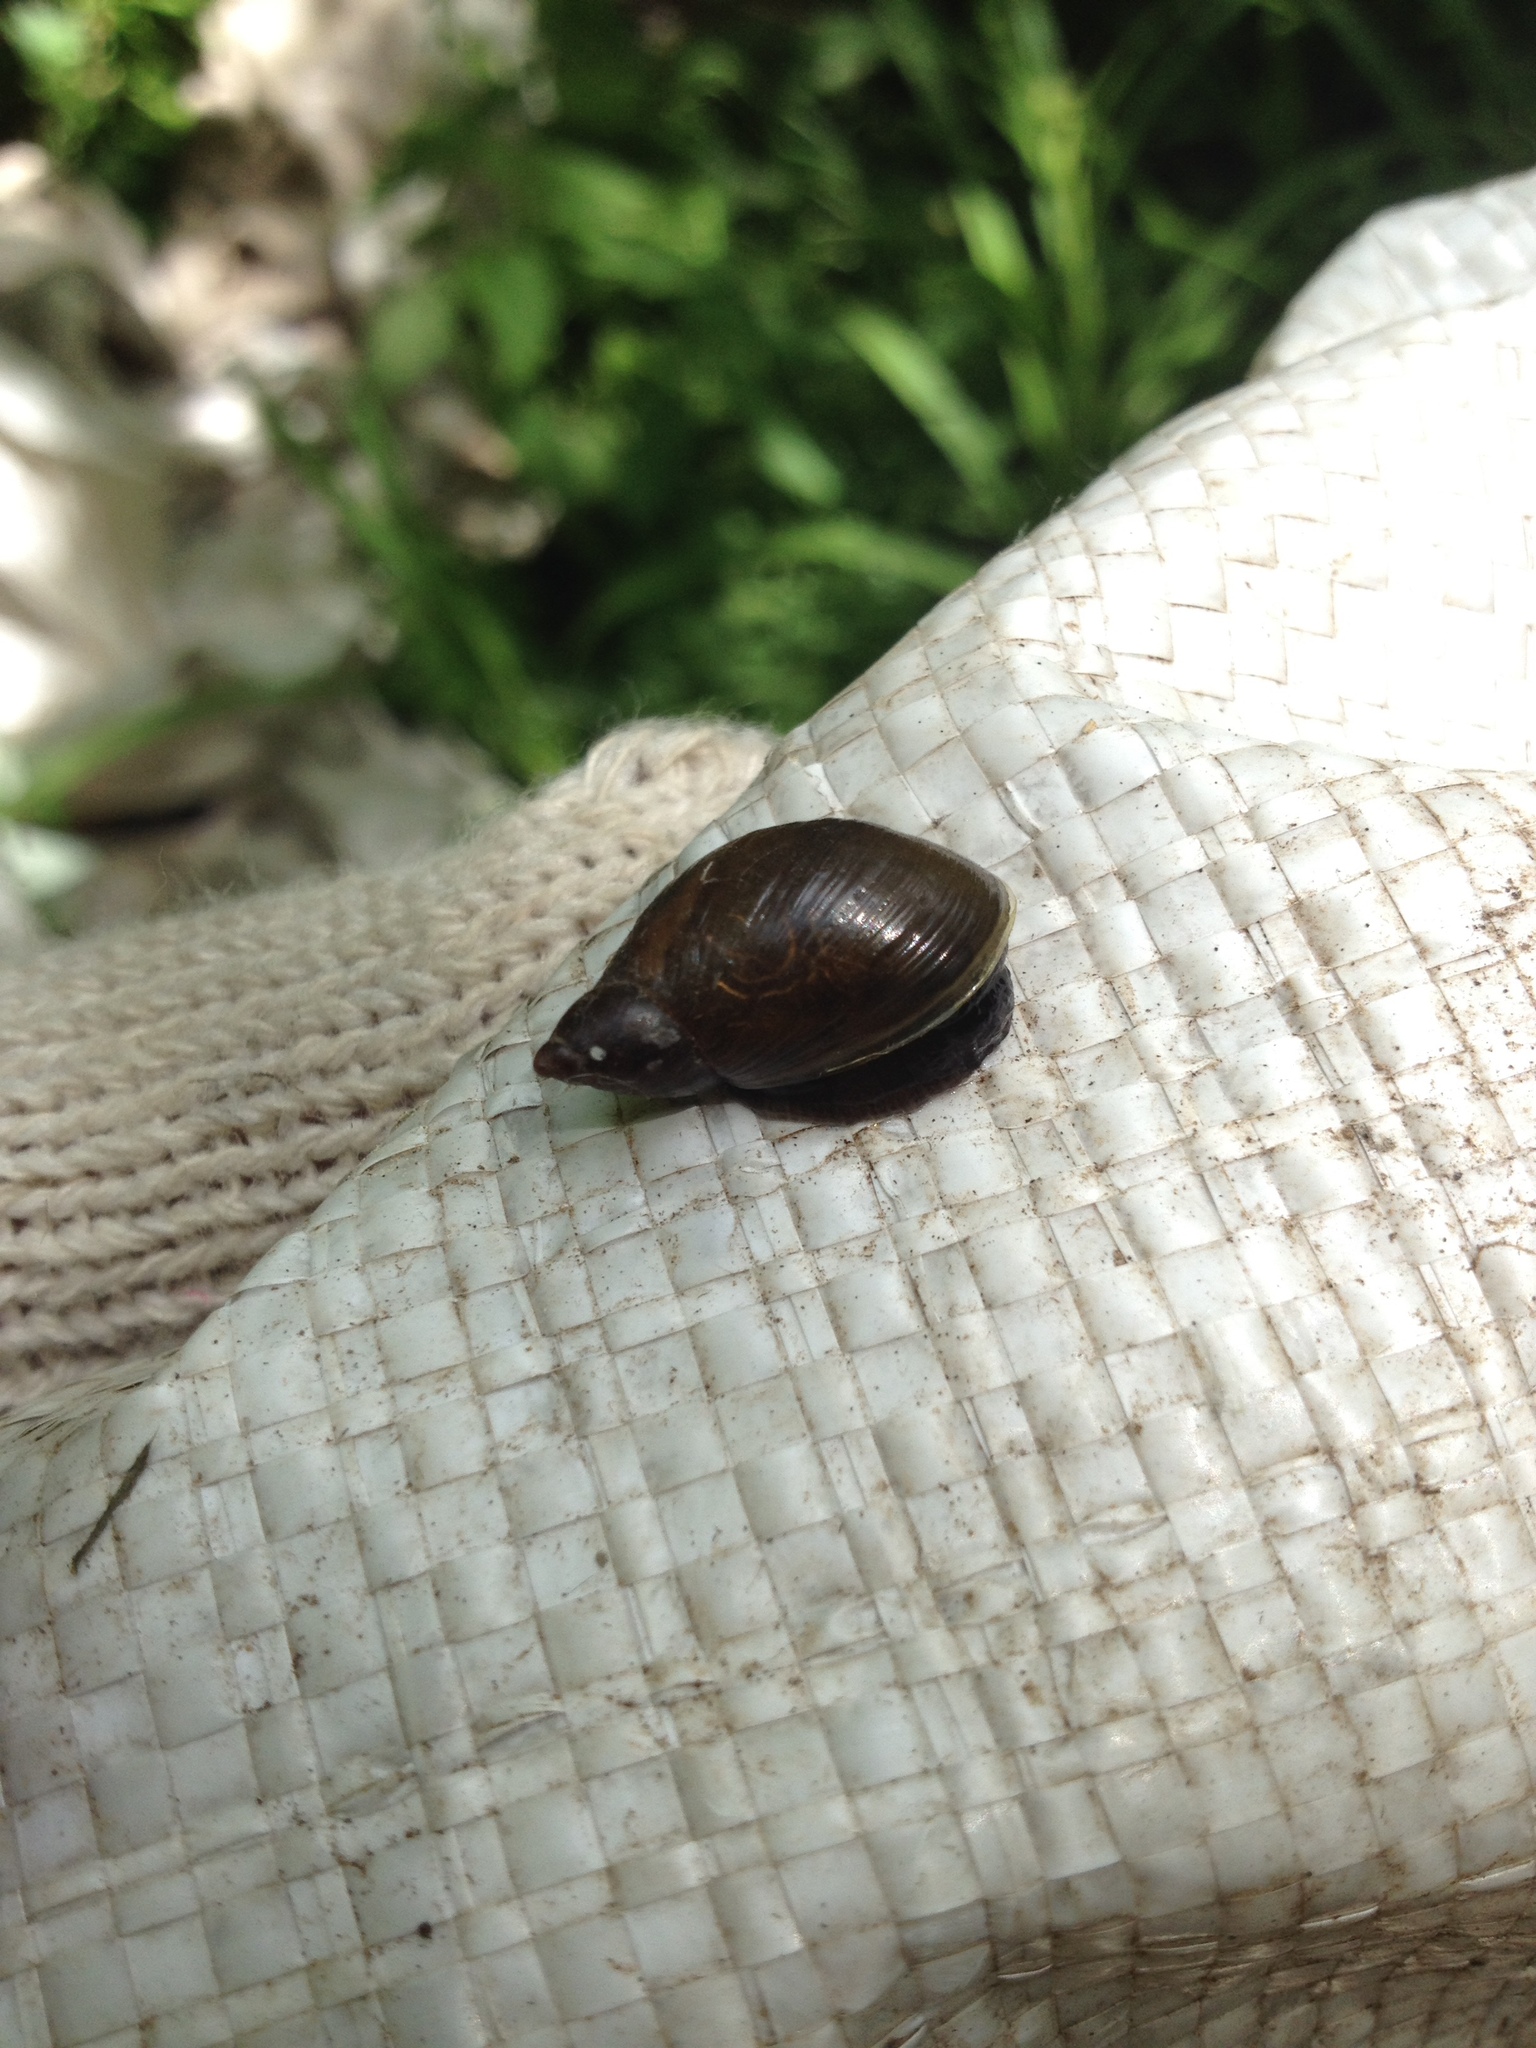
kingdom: Animalia
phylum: Mollusca
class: Gastropoda
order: Stylommatophora
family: Succineidae
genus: Succinea
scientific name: Succinea putris
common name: European ambersnail
